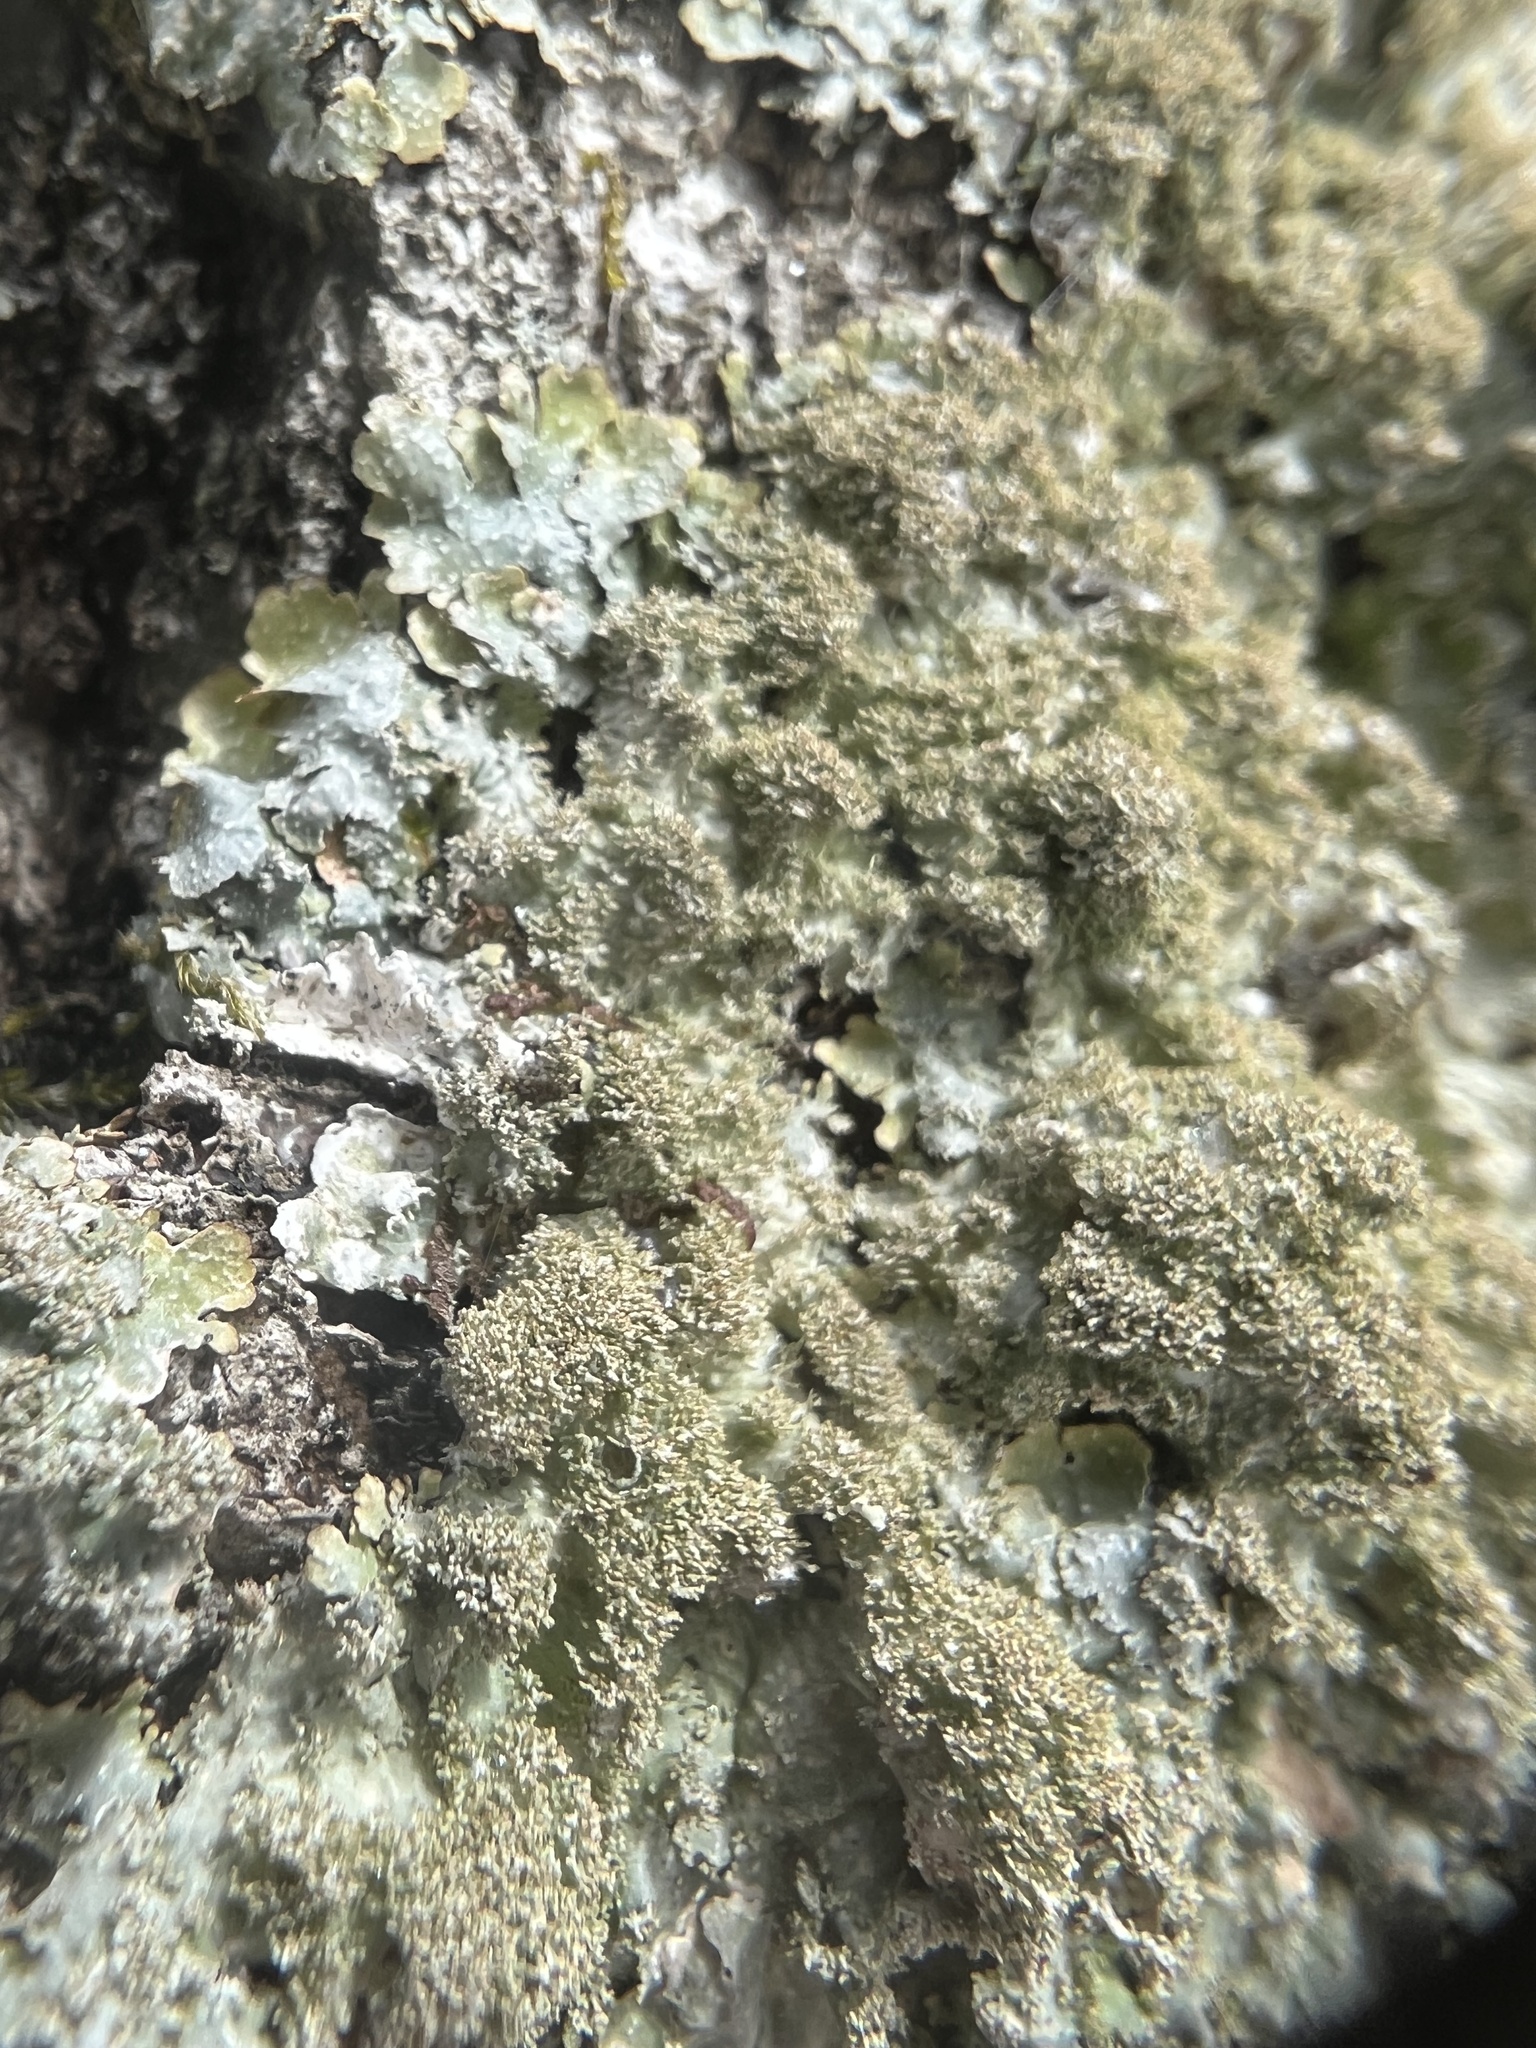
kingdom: Fungi
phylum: Ascomycota
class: Lecanoromycetes
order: Lecanorales
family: Parmeliaceae
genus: Punctelia
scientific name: Punctelia rudecta
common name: Rough speckled shield lichen
